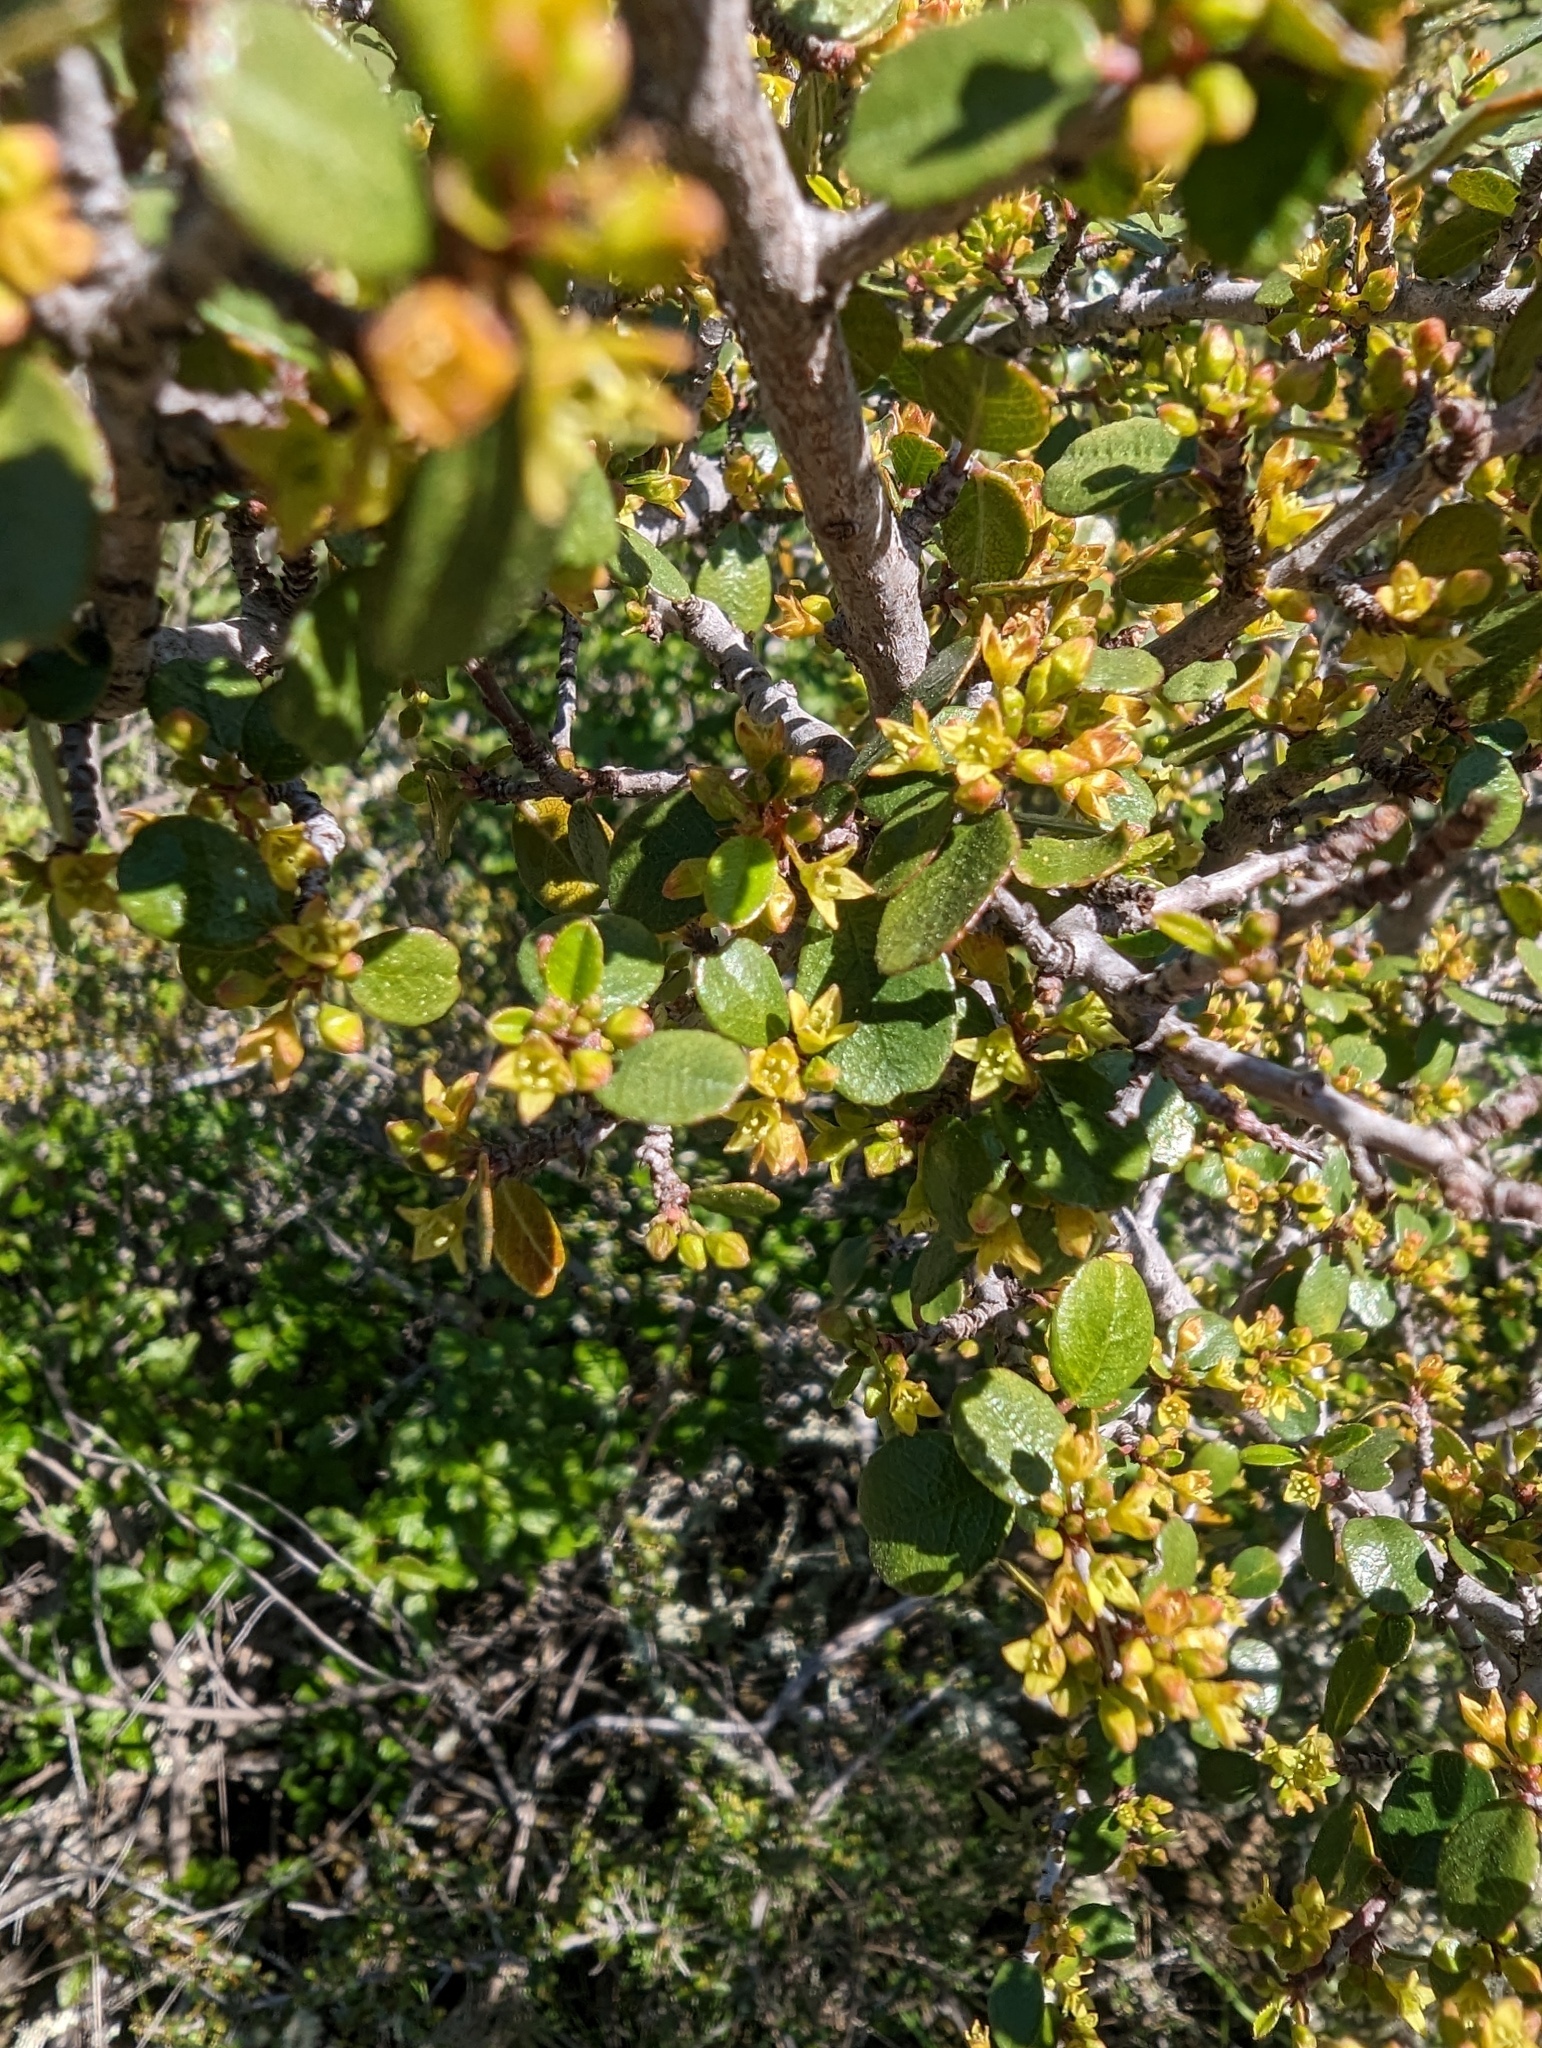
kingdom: Plantae
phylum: Tracheophyta
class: Magnoliopsida
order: Rosales
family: Rhamnaceae
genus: Endotropis
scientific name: Endotropis crocea
